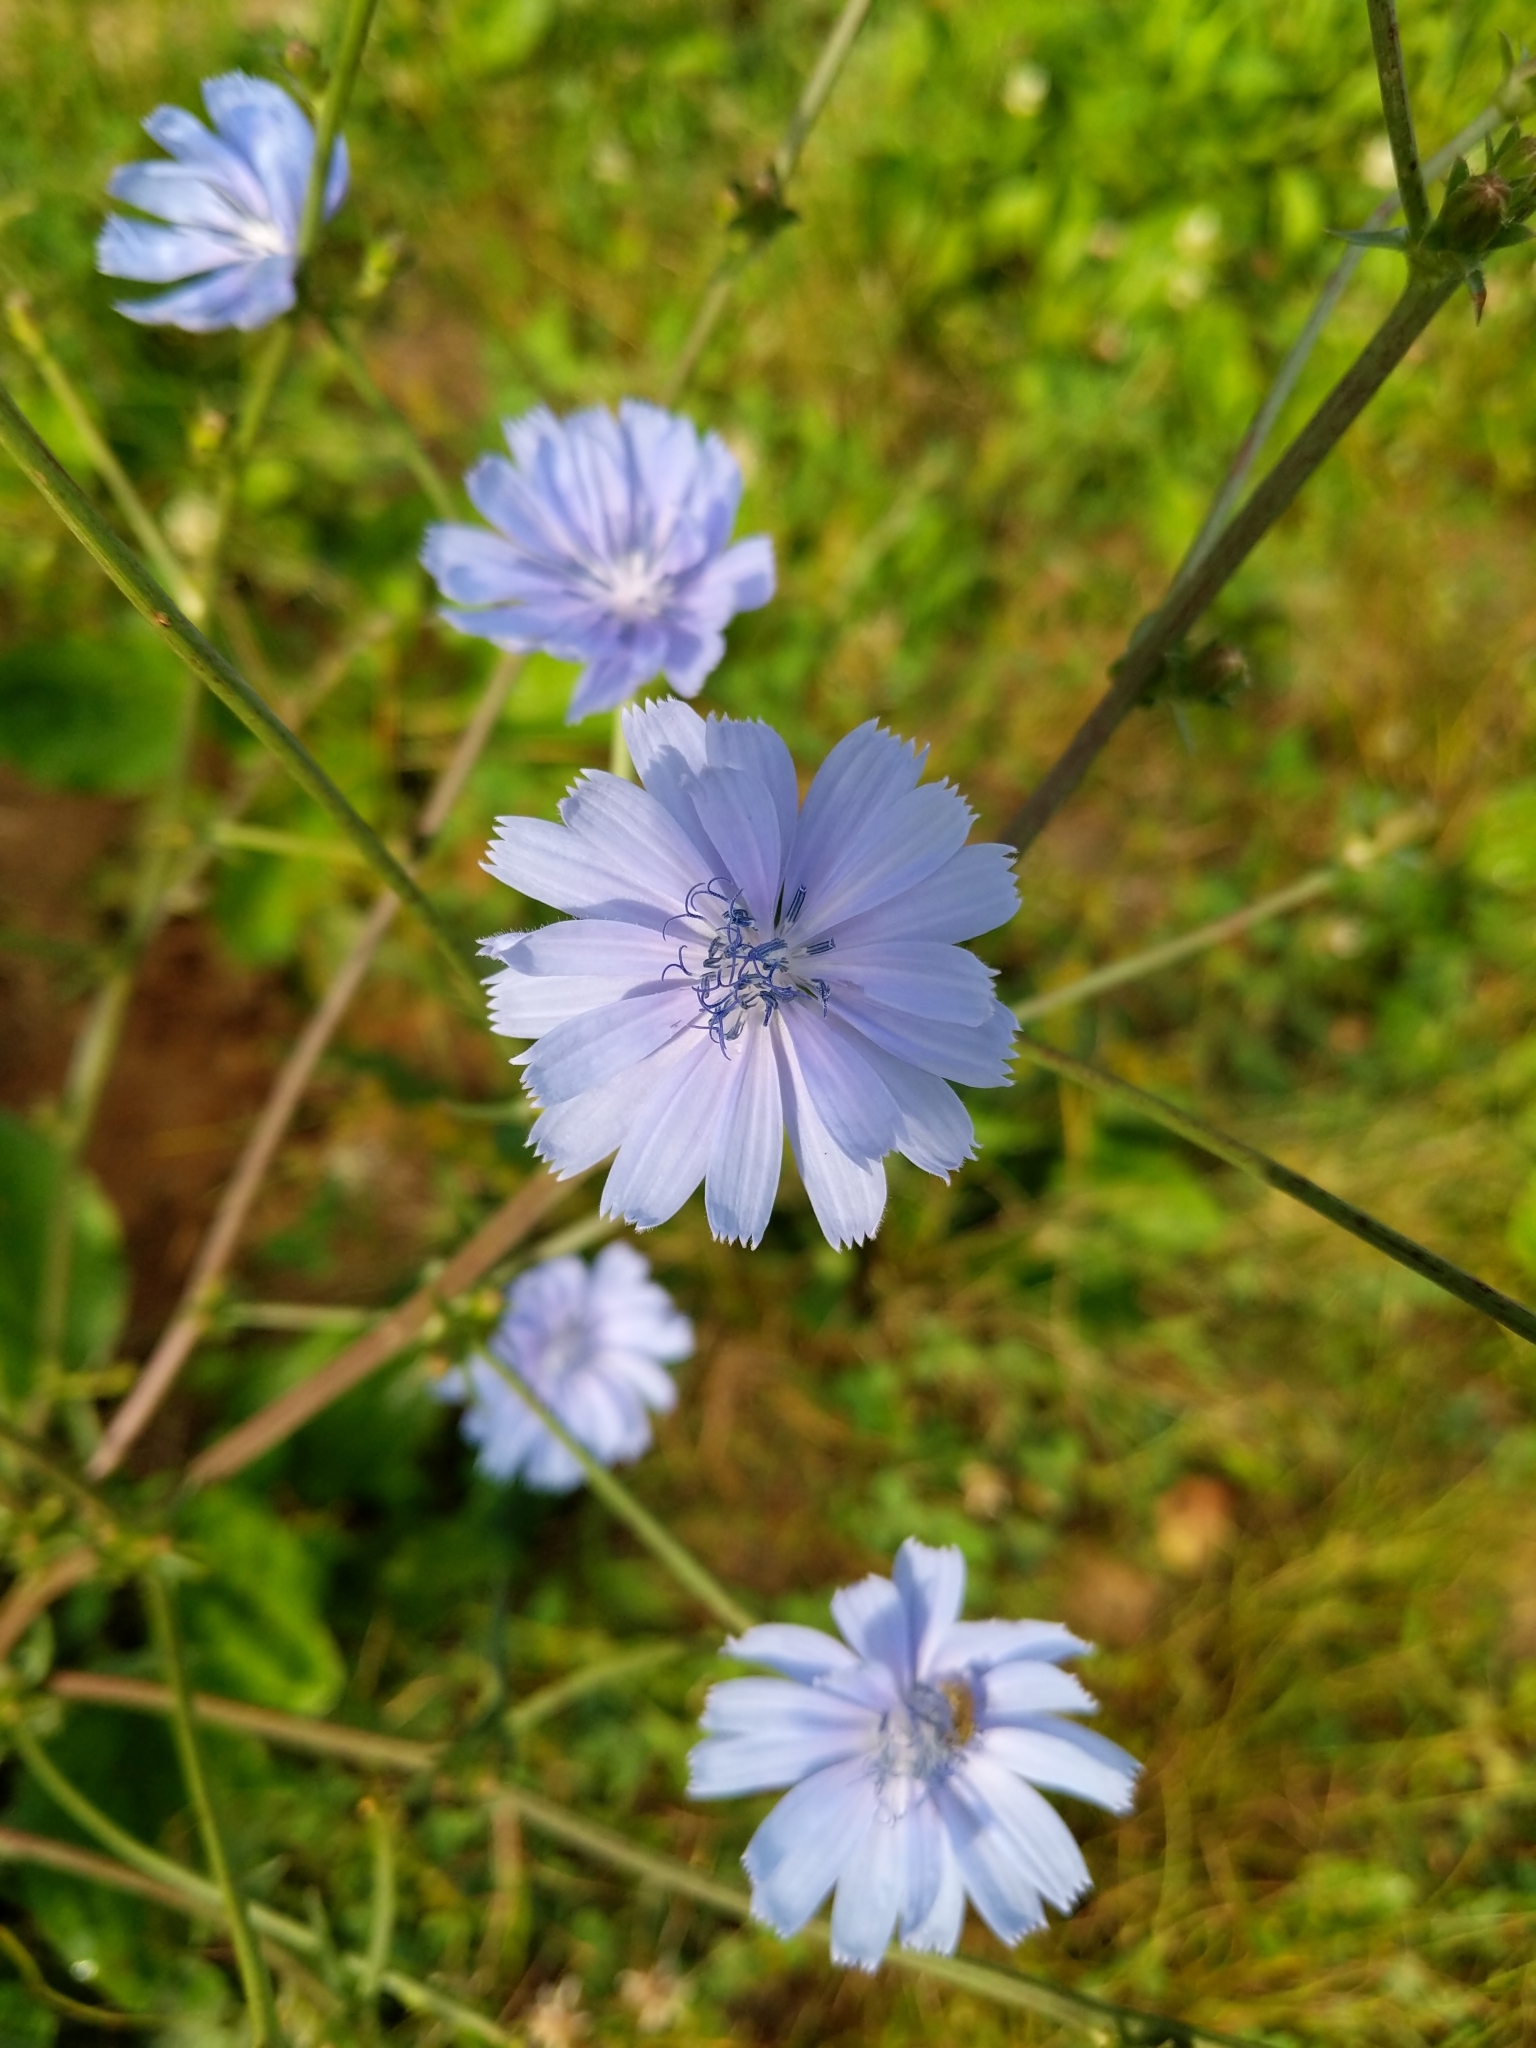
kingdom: Plantae
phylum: Tracheophyta
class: Magnoliopsida
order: Asterales
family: Asteraceae
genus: Cichorium
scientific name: Cichorium intybus
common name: Chicory
